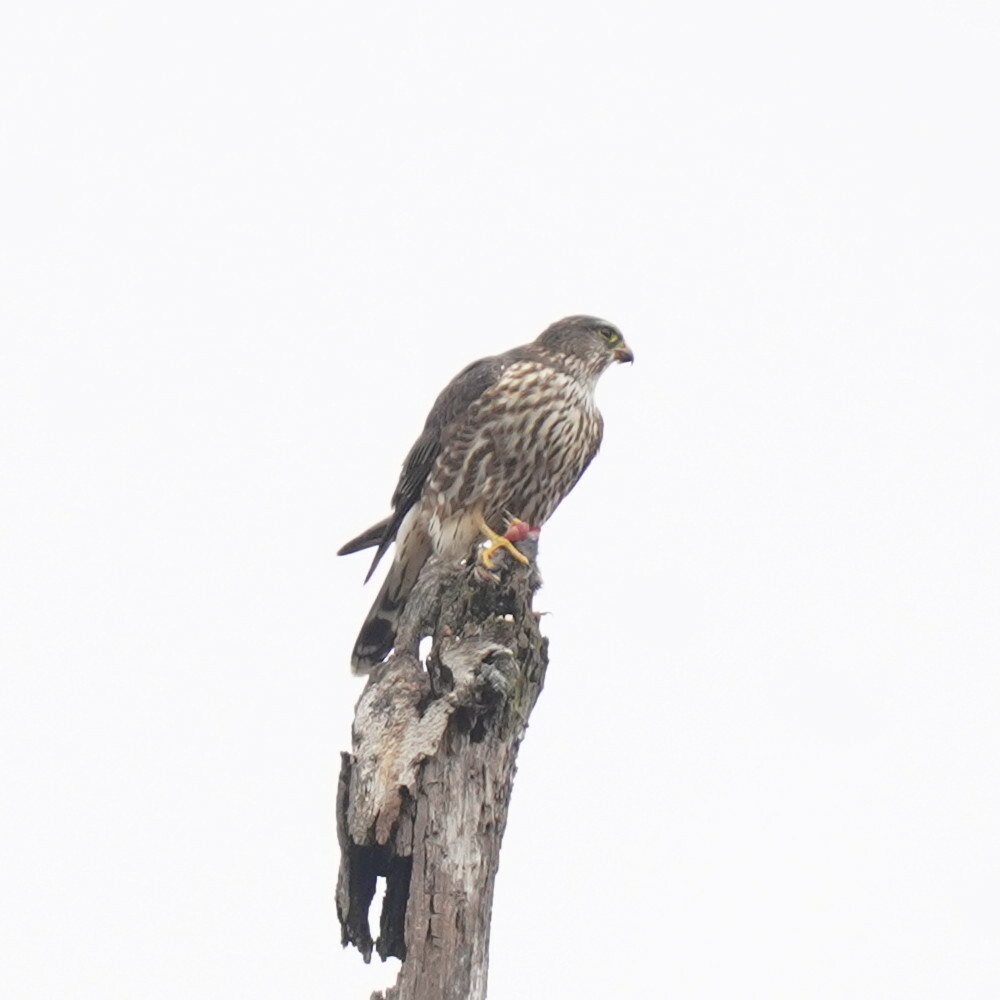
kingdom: Animalia
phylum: Chordata
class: Aves
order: Falconiformes
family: Falconidae
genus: Falco
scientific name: Falco columbarius
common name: Merlin
